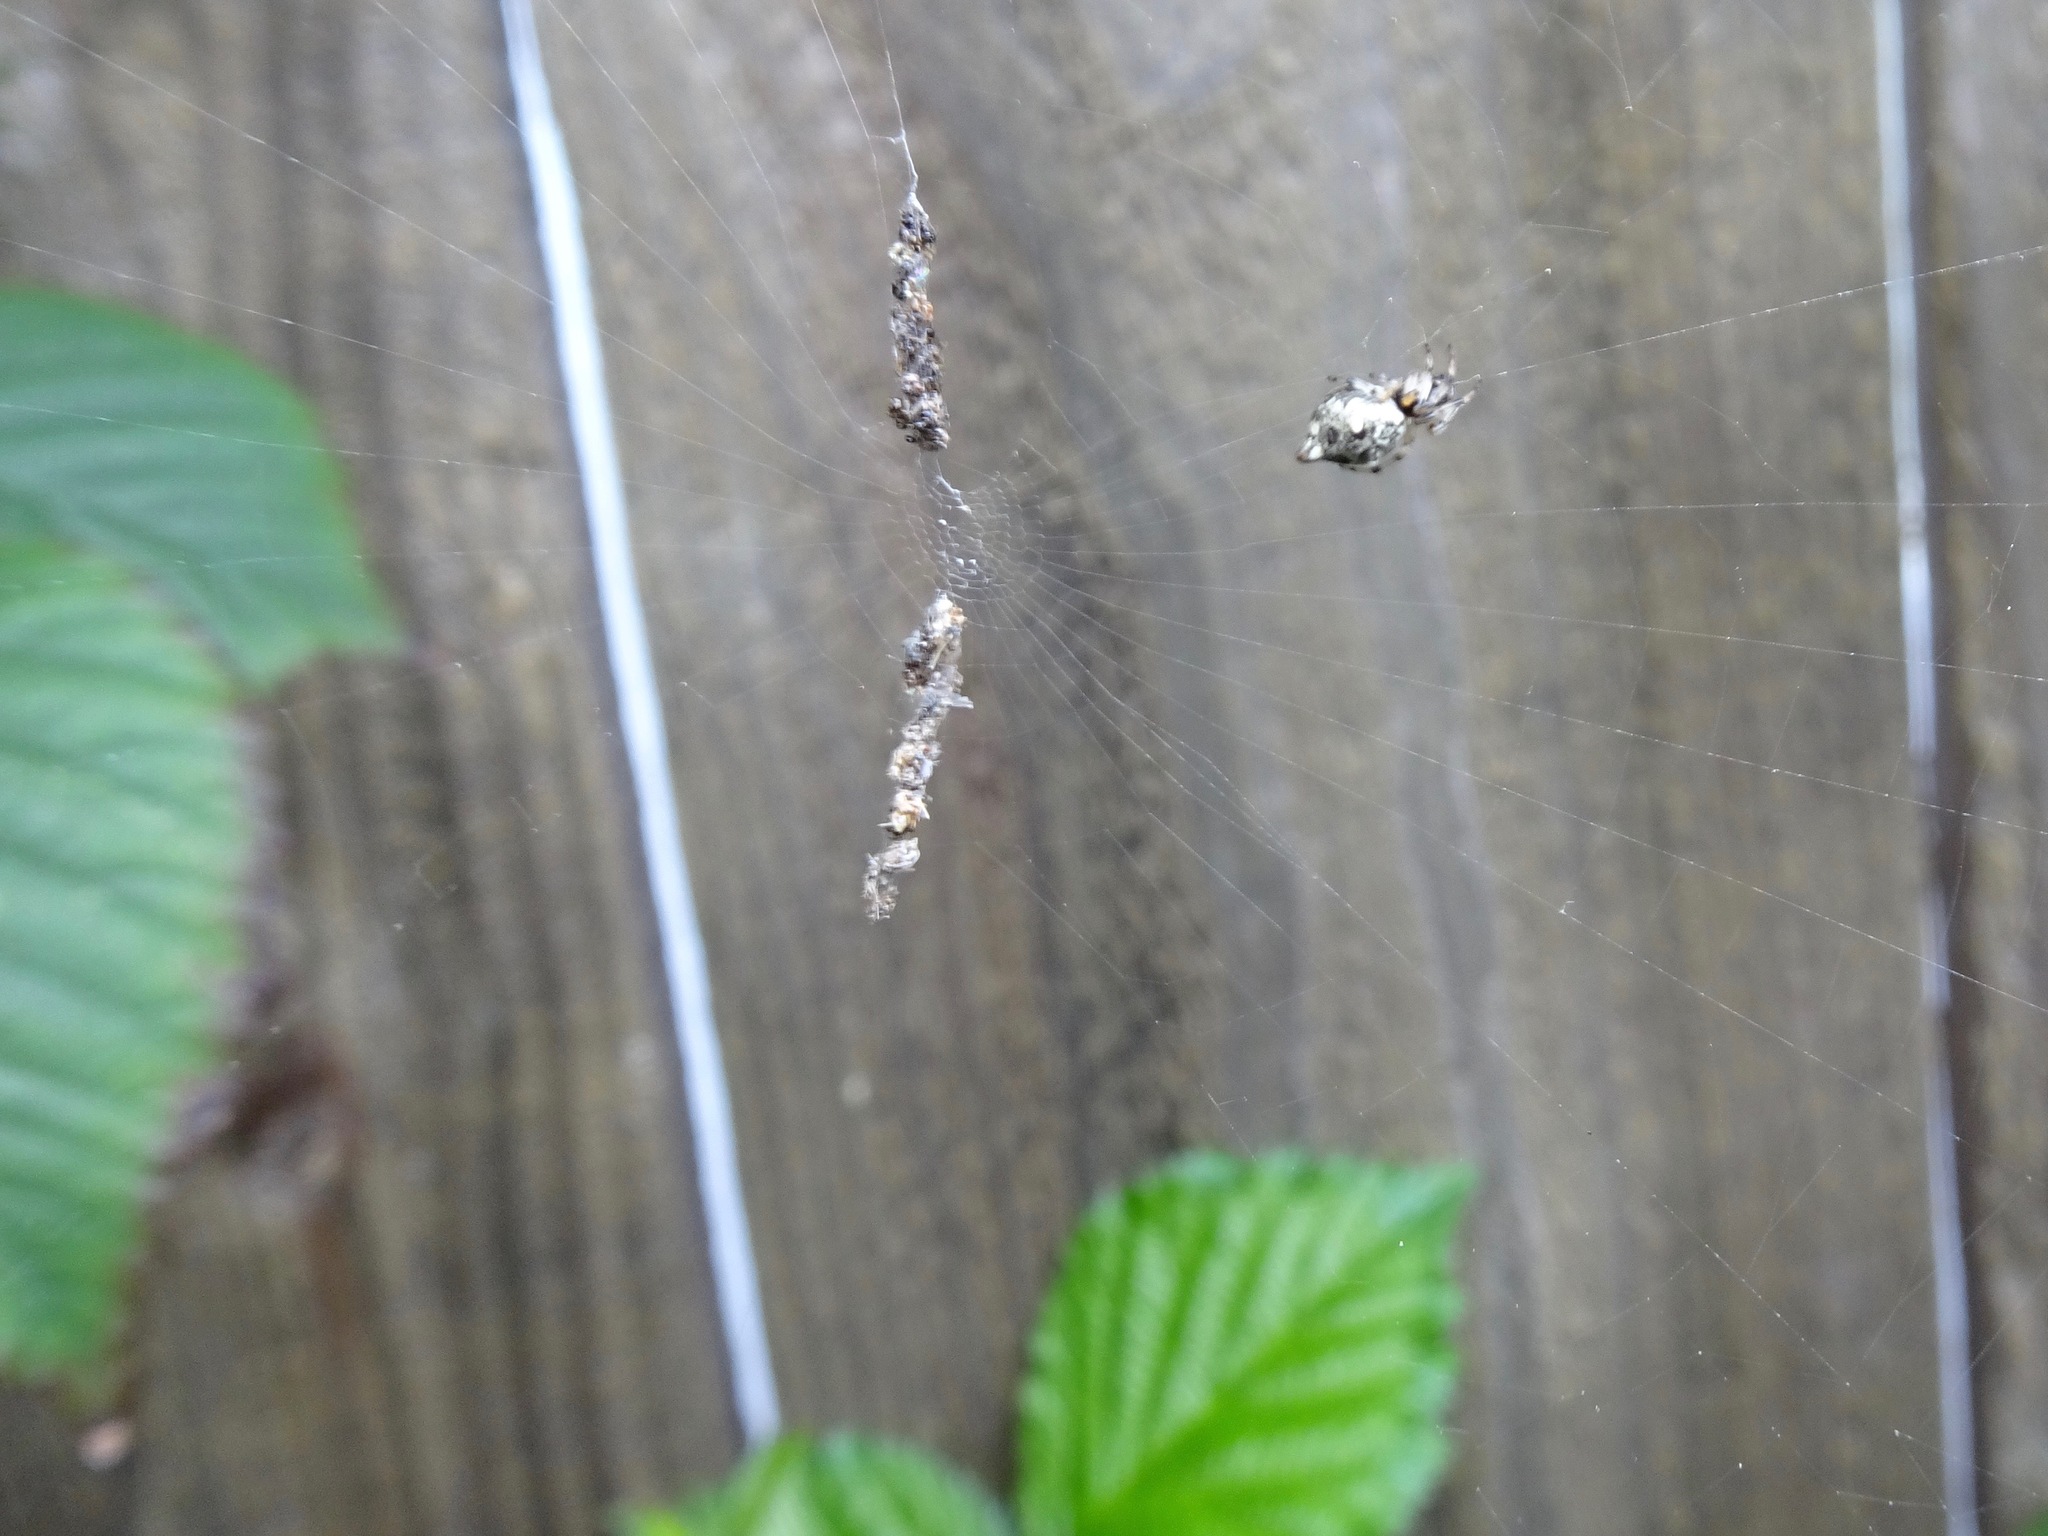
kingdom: Animalia
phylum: Arthropoda
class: Arachnida
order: Araneae
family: Araneidae
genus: Cyclosa
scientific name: Cyclosa turbinata
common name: Orb weavers
